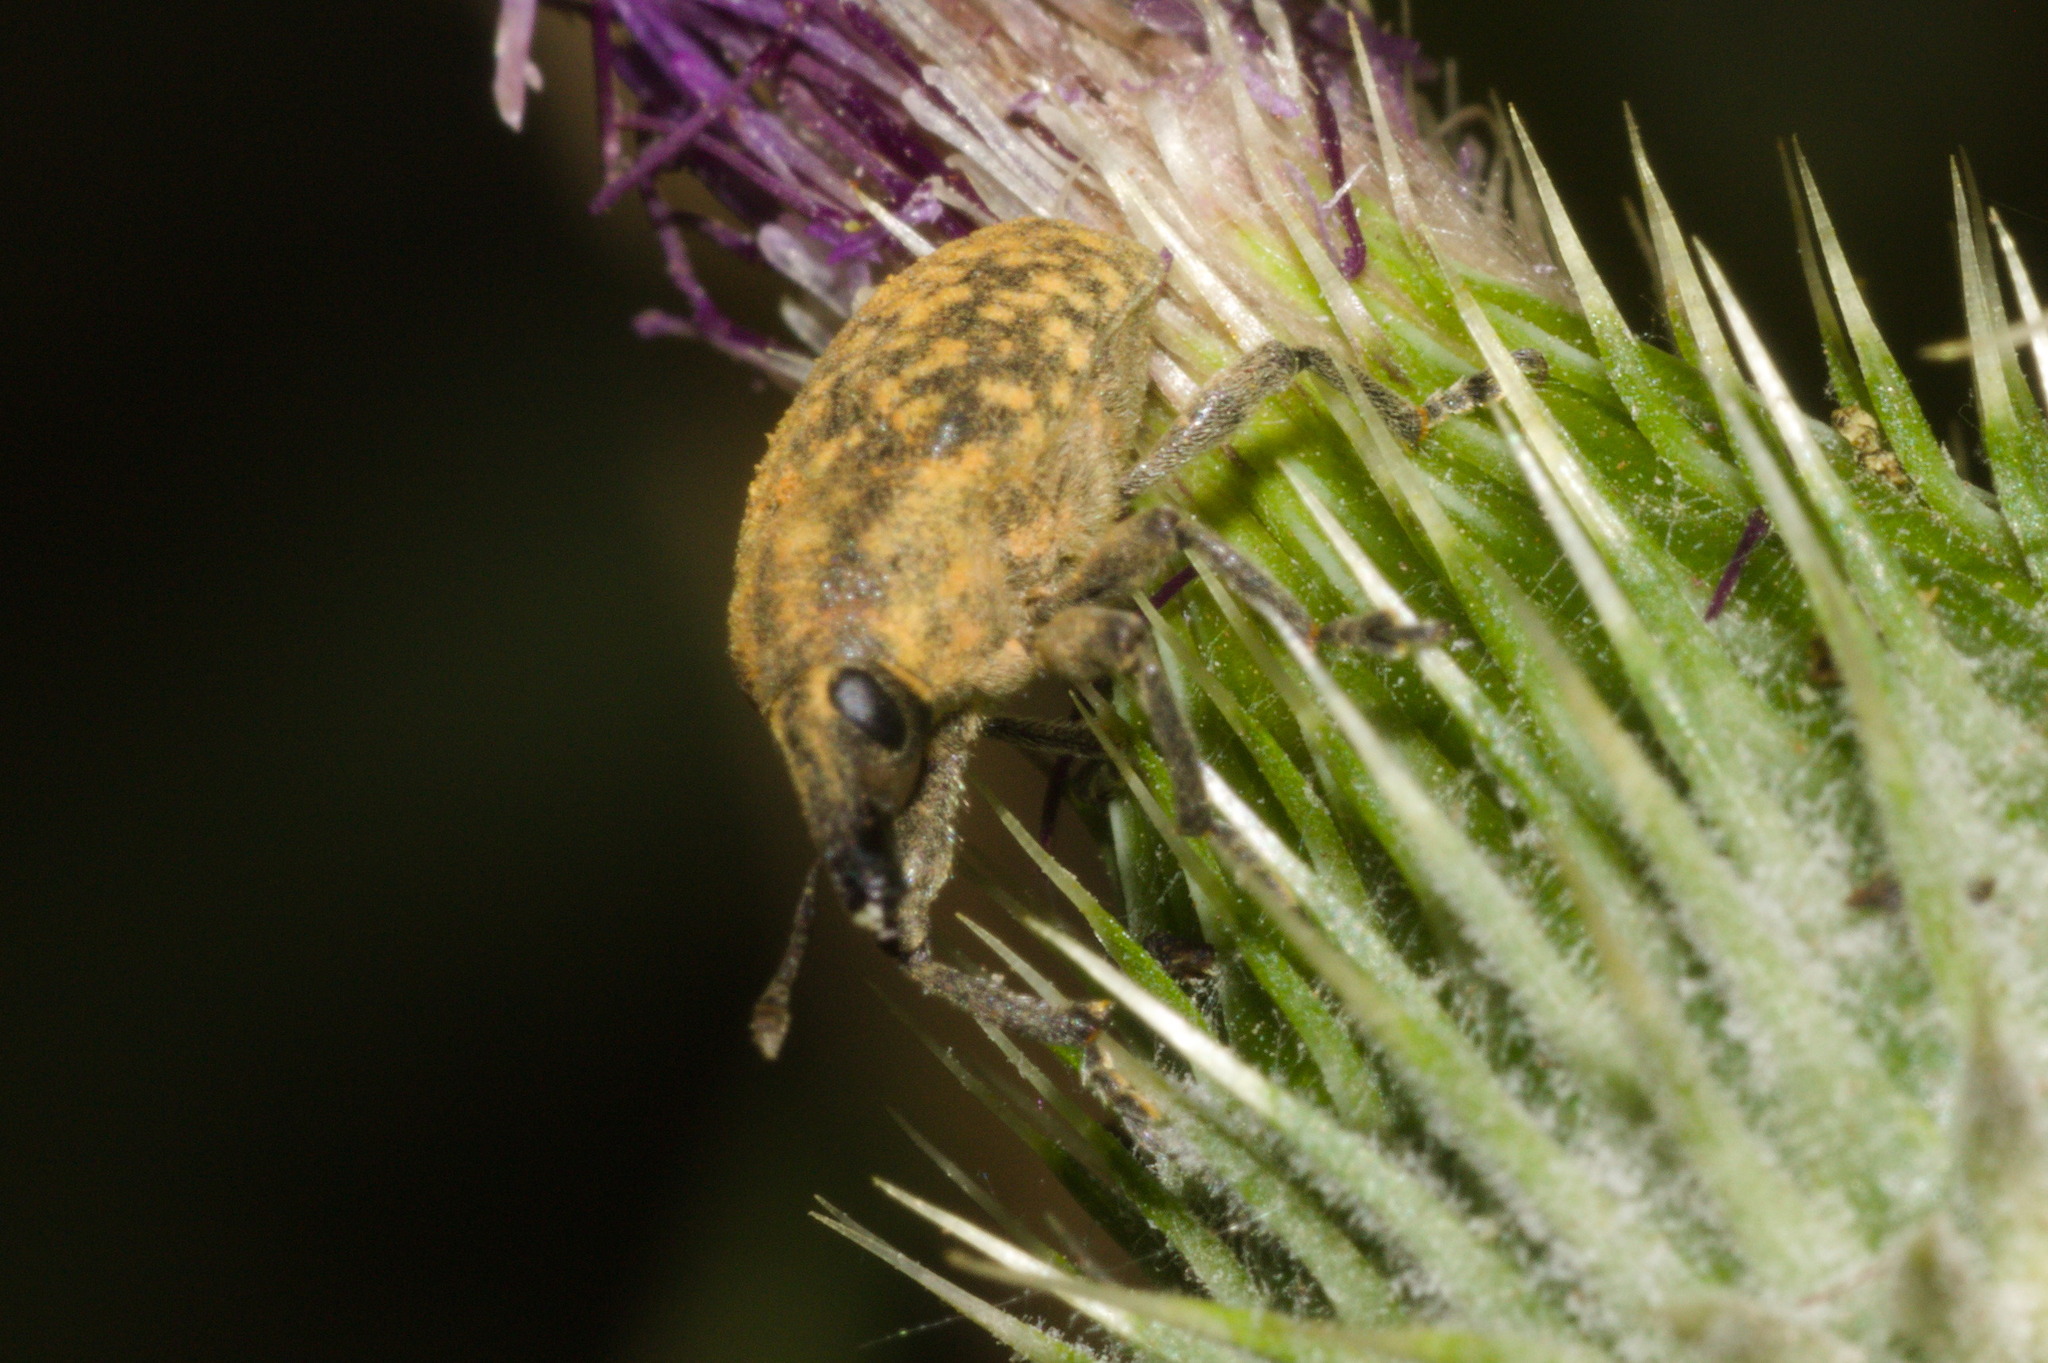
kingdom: Animalia
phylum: Arthropoda
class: Insecta
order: Coleoptera
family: Curculionidae
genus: Larinus
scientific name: Larinus turbinatus
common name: Weevil
